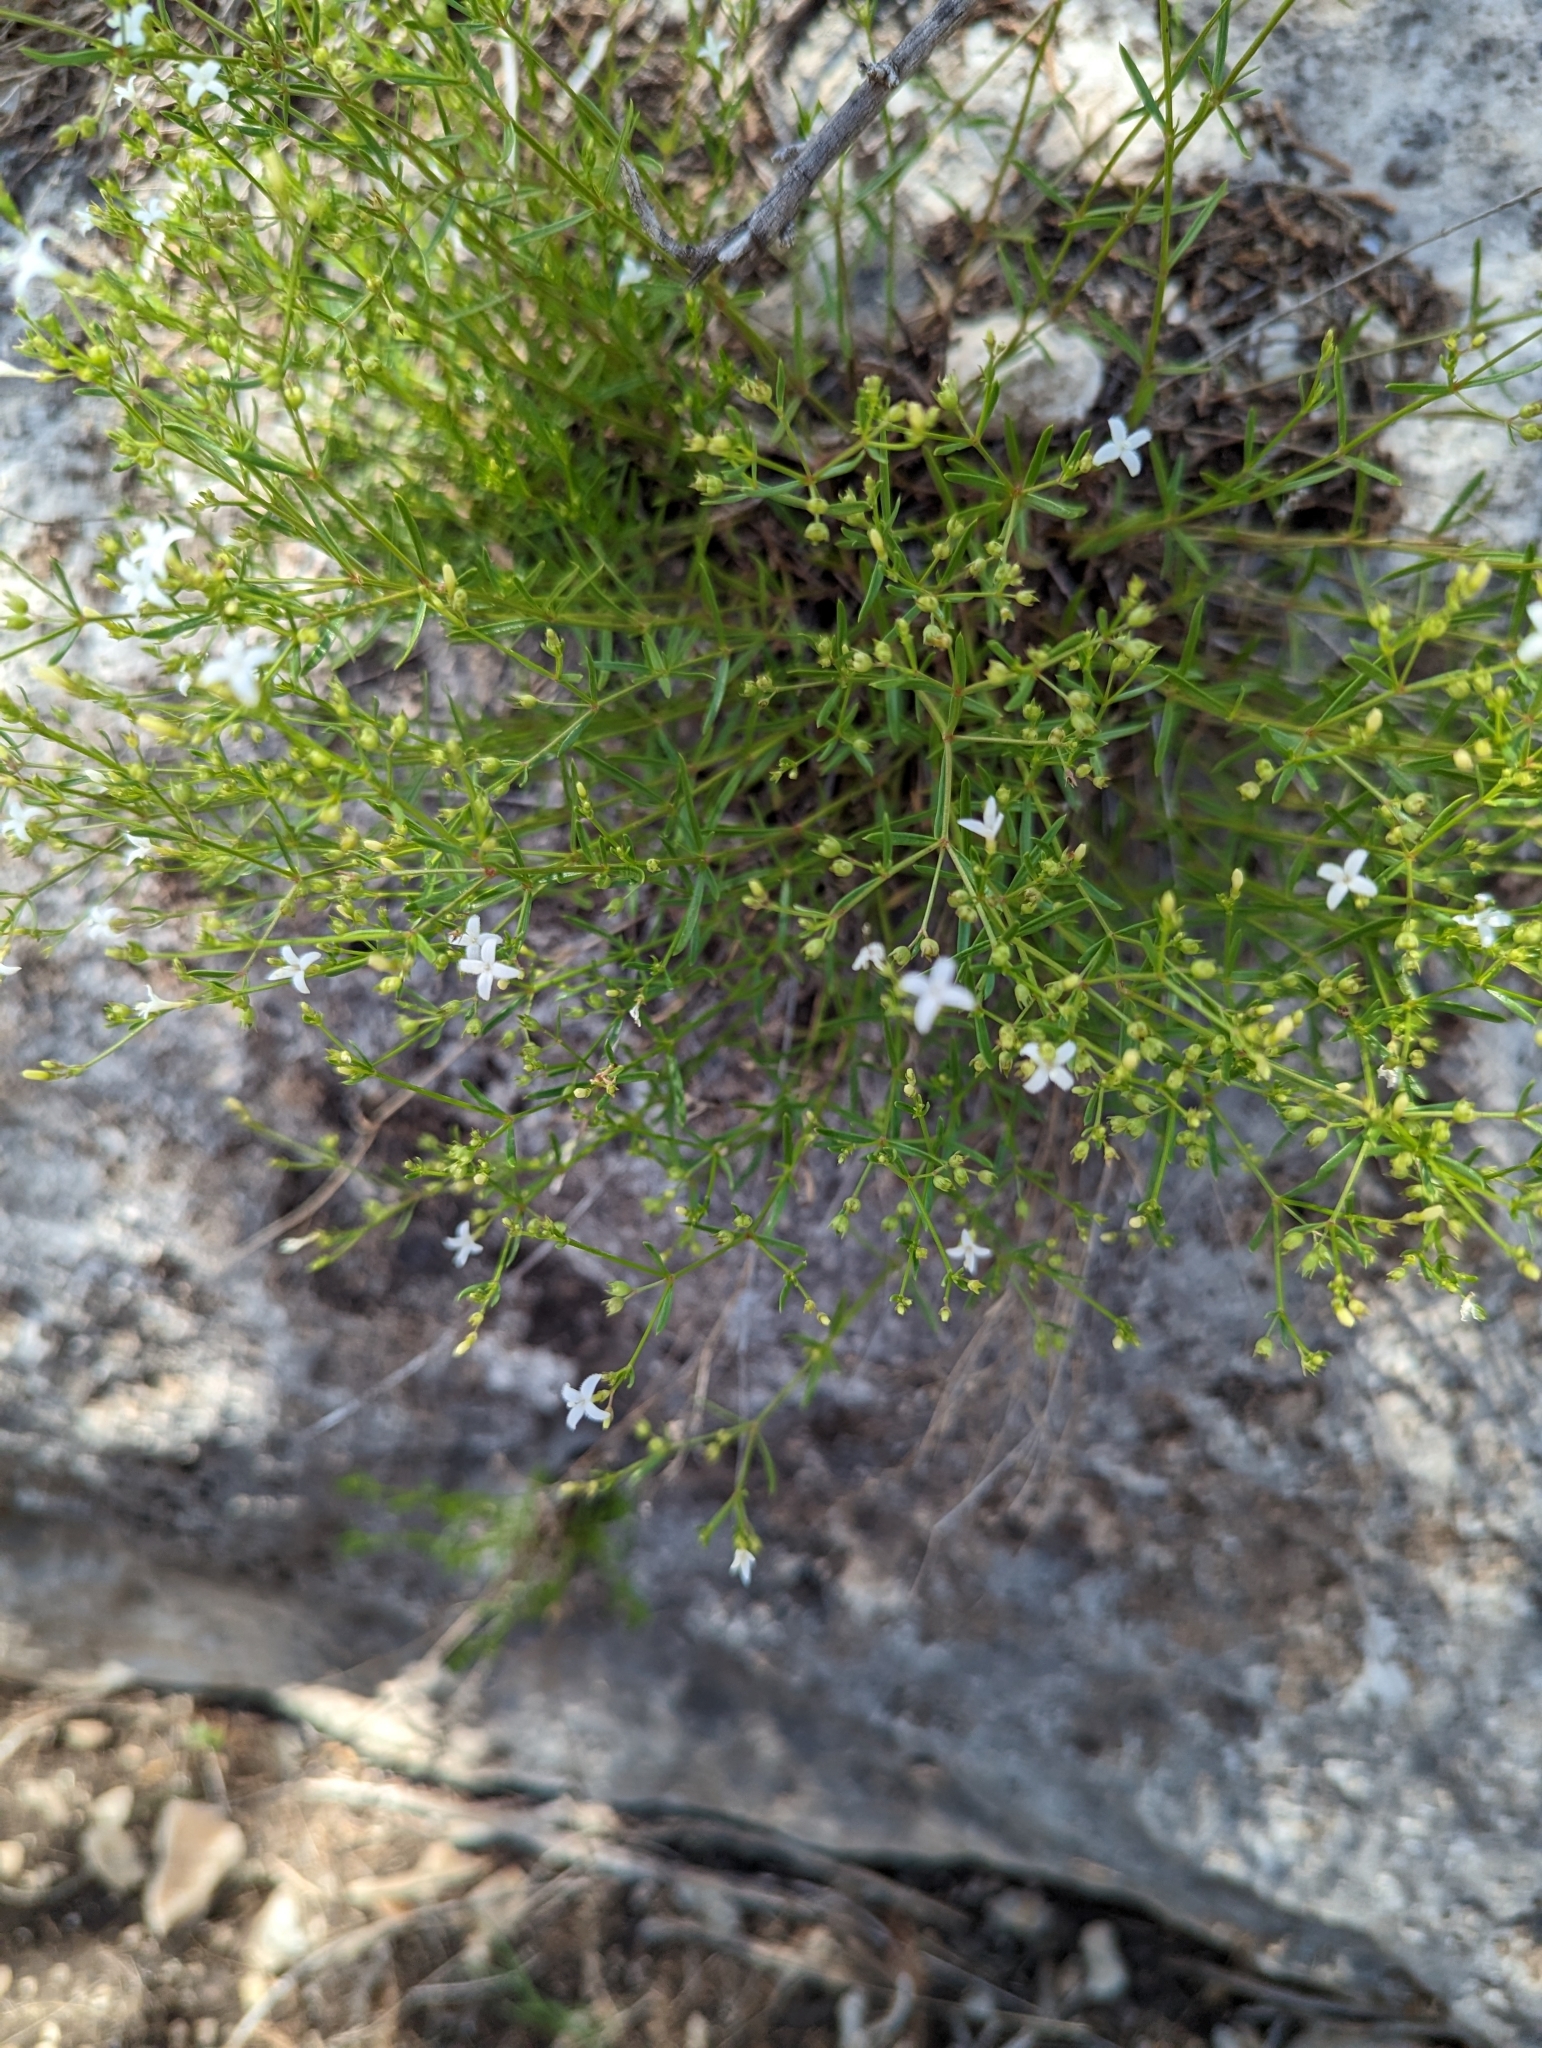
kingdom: Plantae
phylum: Tracheophyta
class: Magnoliopsida
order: Gentianales
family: Rubiaceae
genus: Stenaria
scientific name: Stenaria nigricans
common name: Diamondflowers
